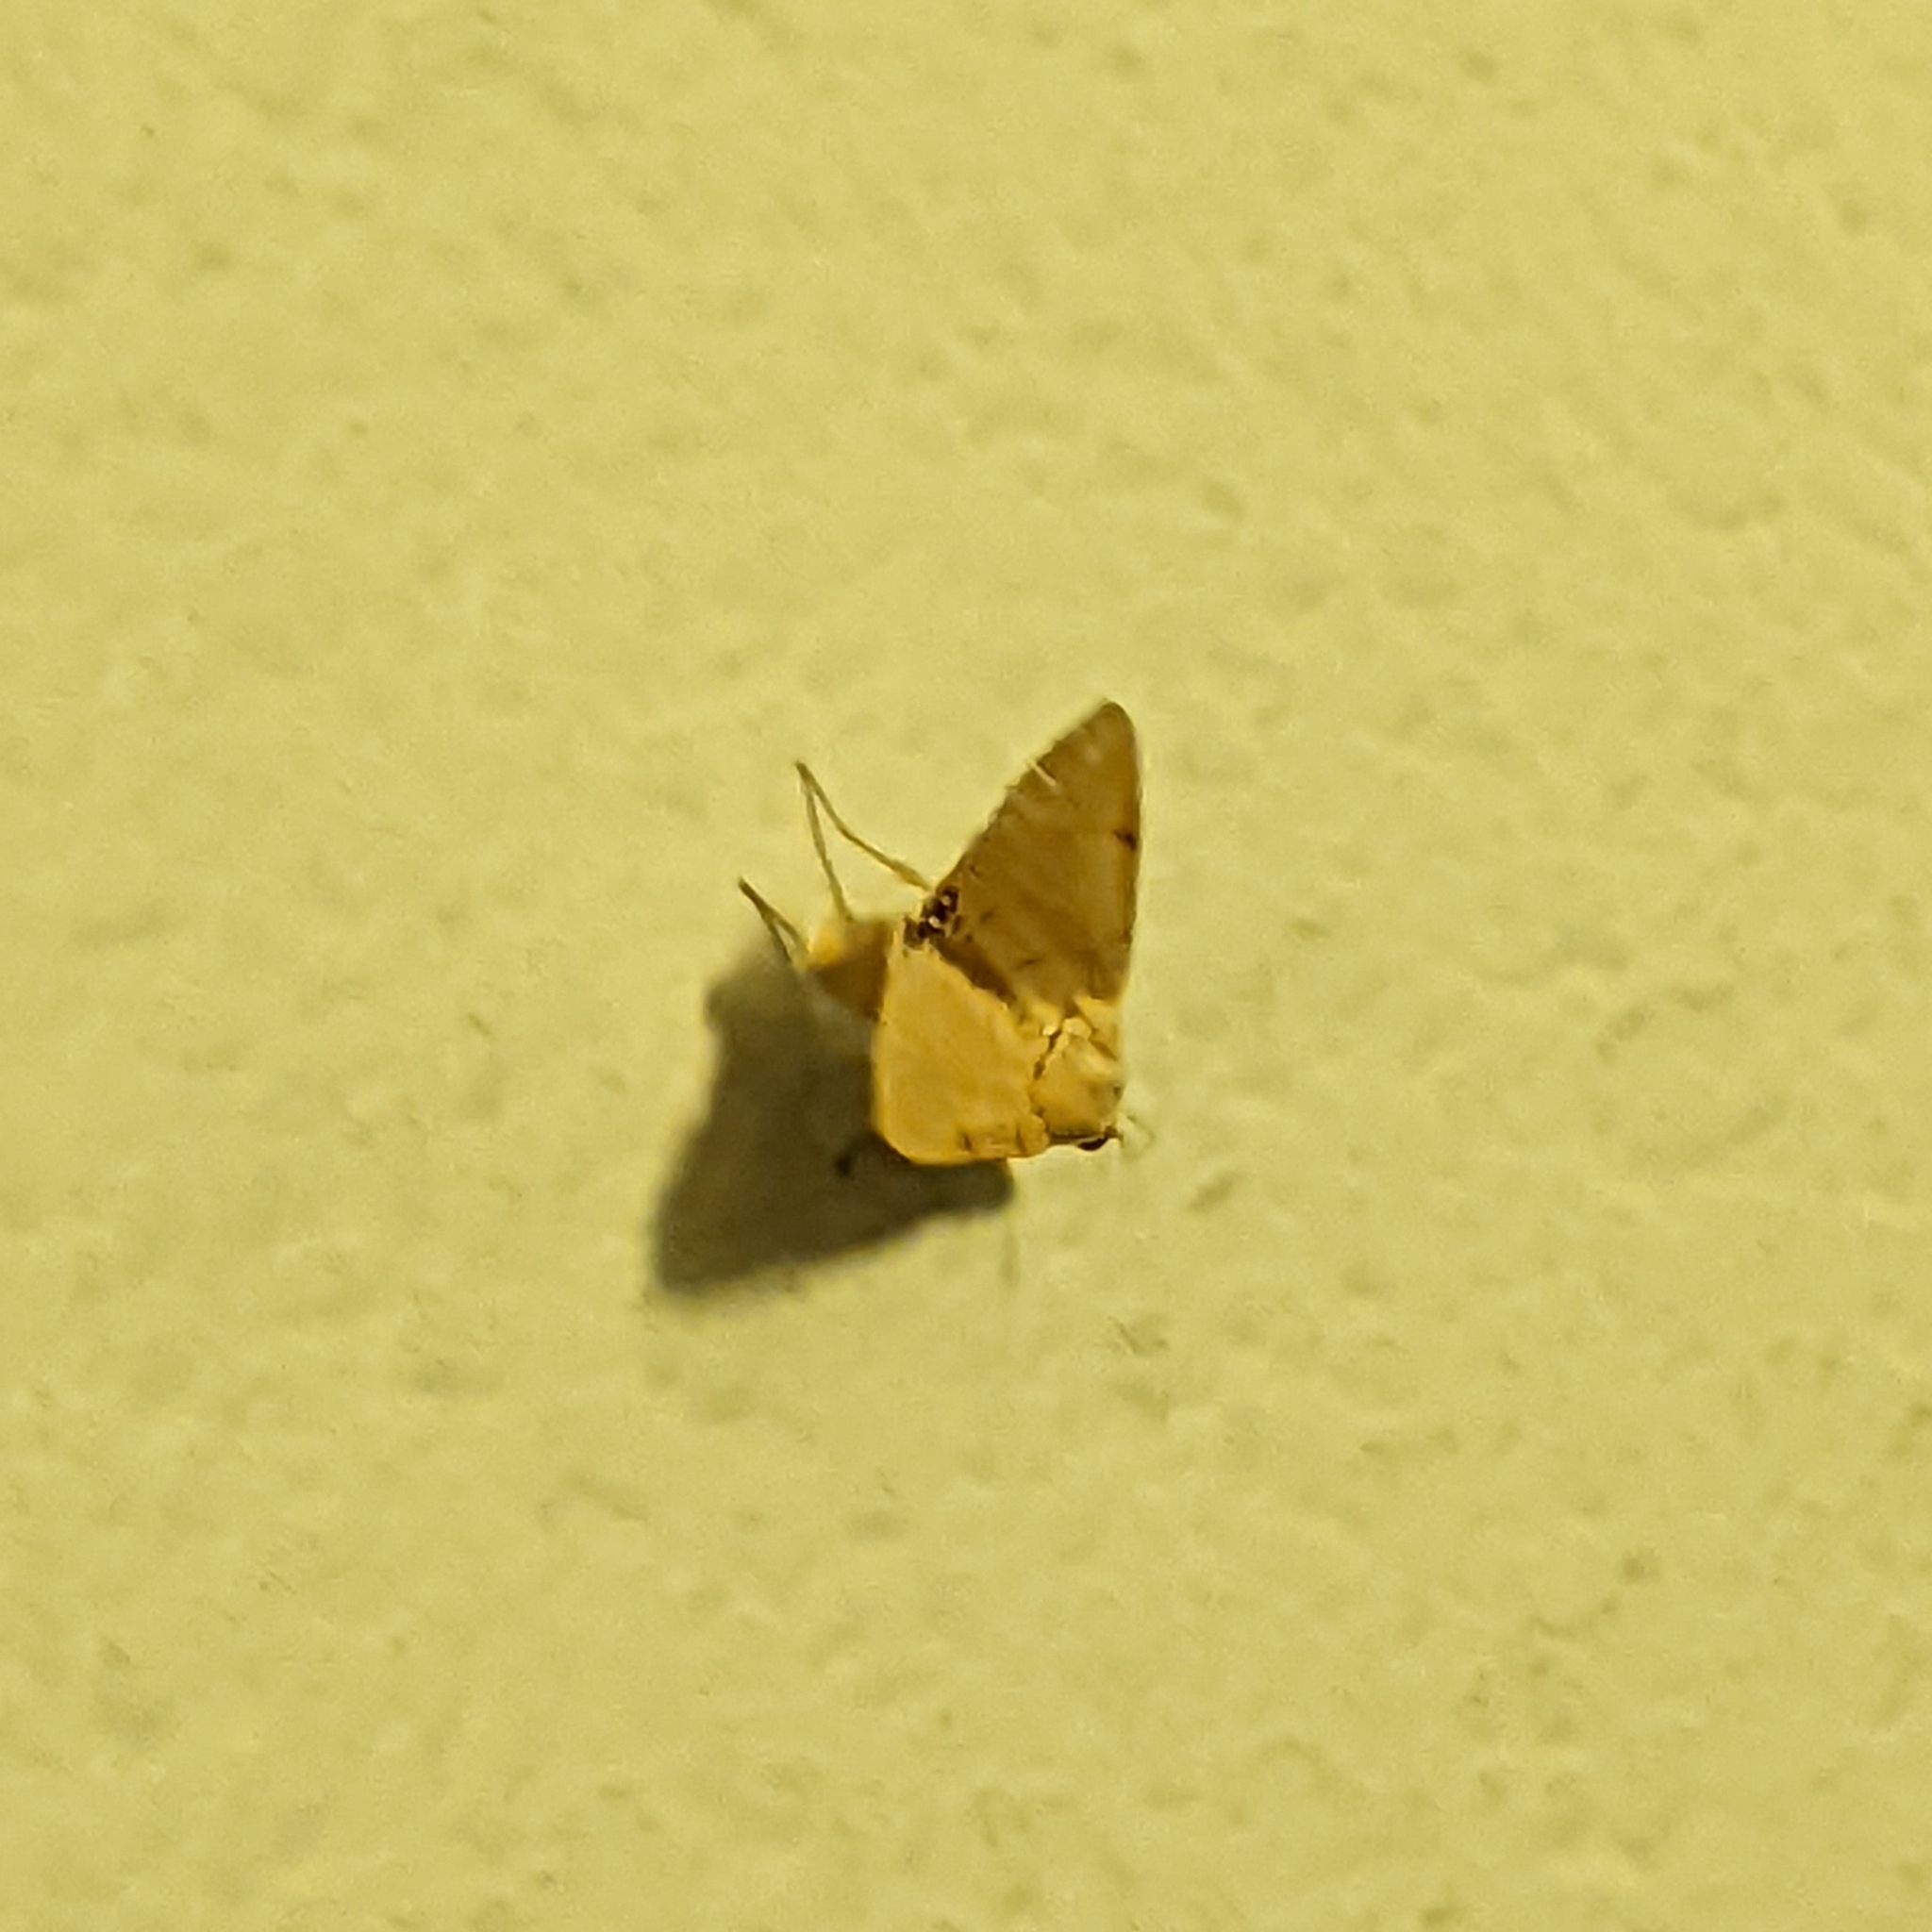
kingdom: Animalia
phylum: Arthropoda
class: Insecta
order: Lepidoptera
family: Erebidae
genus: Litoprosopus
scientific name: Litoprosopus coachella
